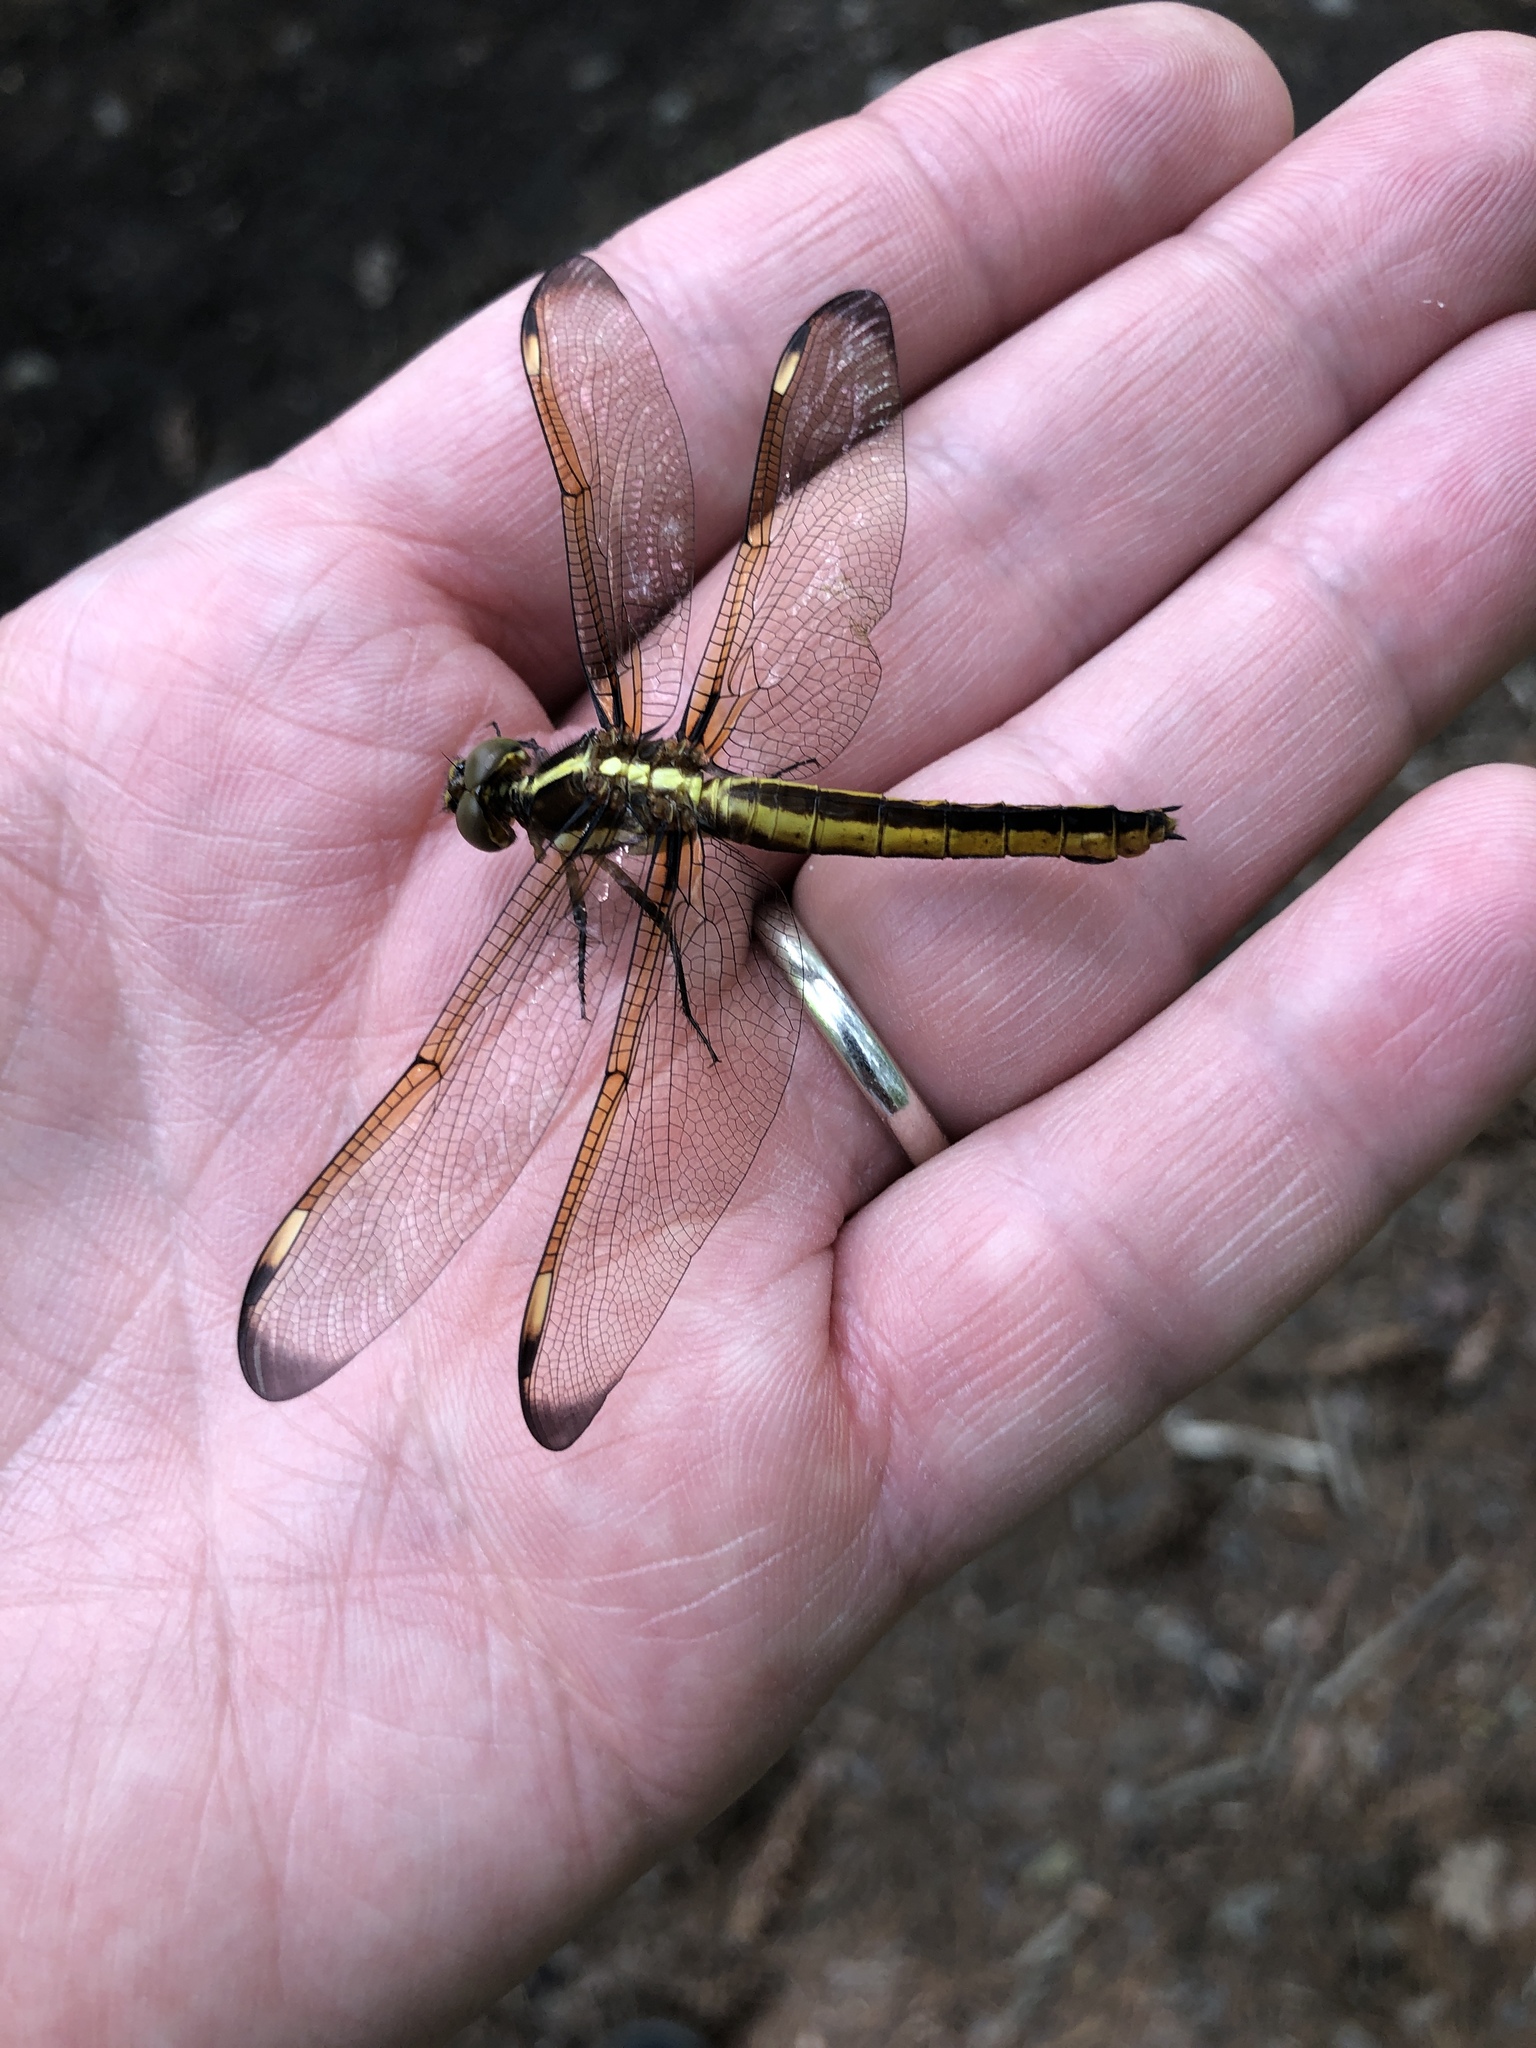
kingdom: Animalia
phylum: Arthropoda
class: Insecta
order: Odonata
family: Libellulidae
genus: Libellula
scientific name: Libellula cyanea
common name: Spangled skimmer
